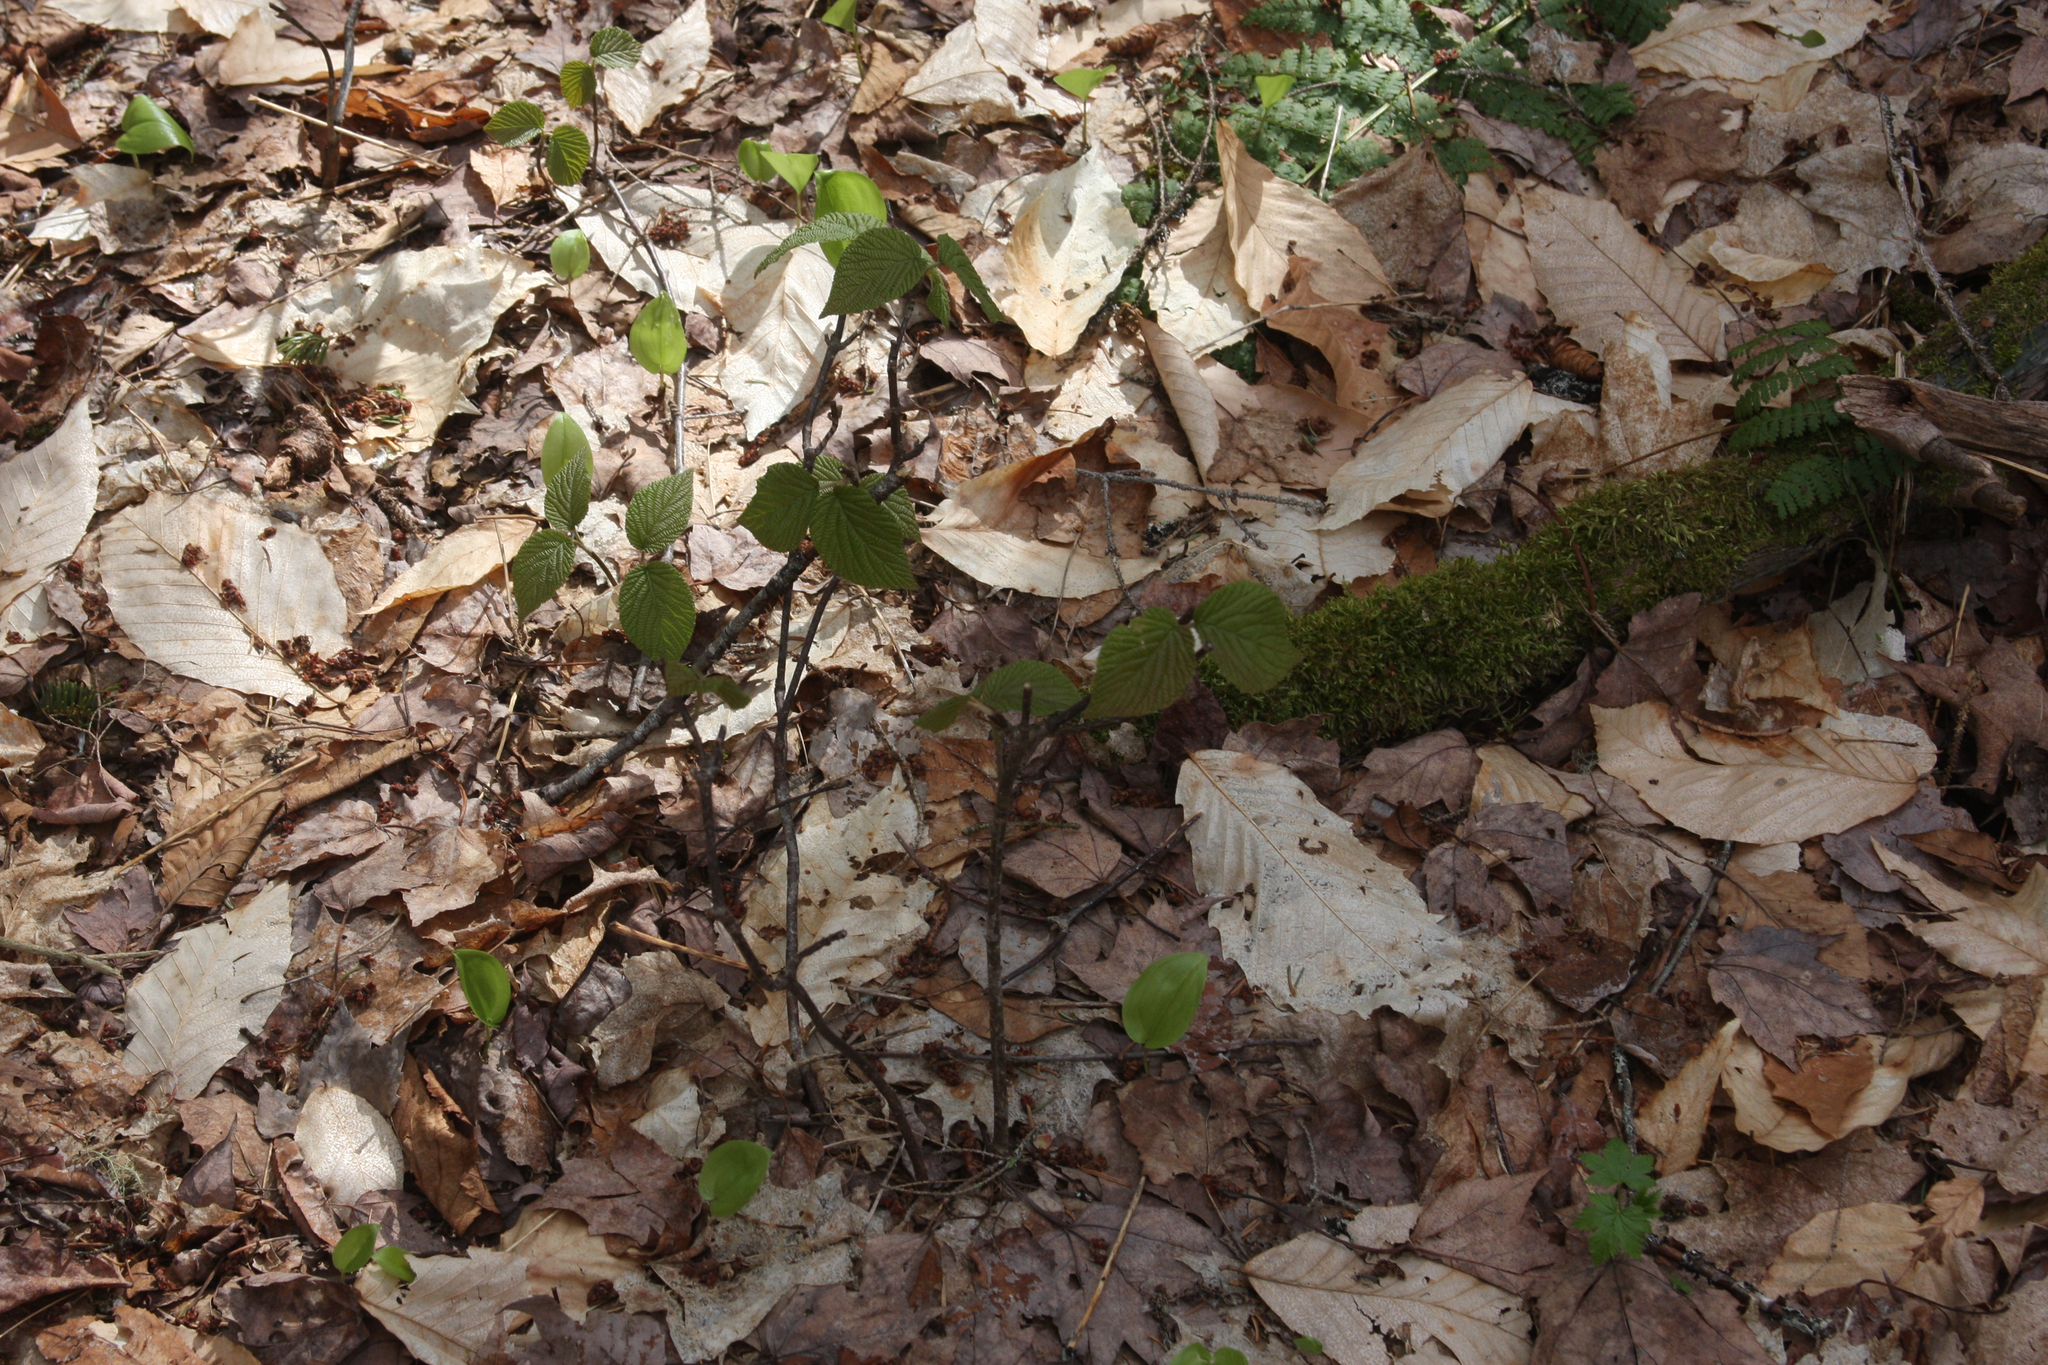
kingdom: Plantae
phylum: Tracheophyta
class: Magnoliopsida
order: Dipsacales
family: Viburnaceae
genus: Viburnum
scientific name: Viburnum lantanoides
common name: Hobblebush
